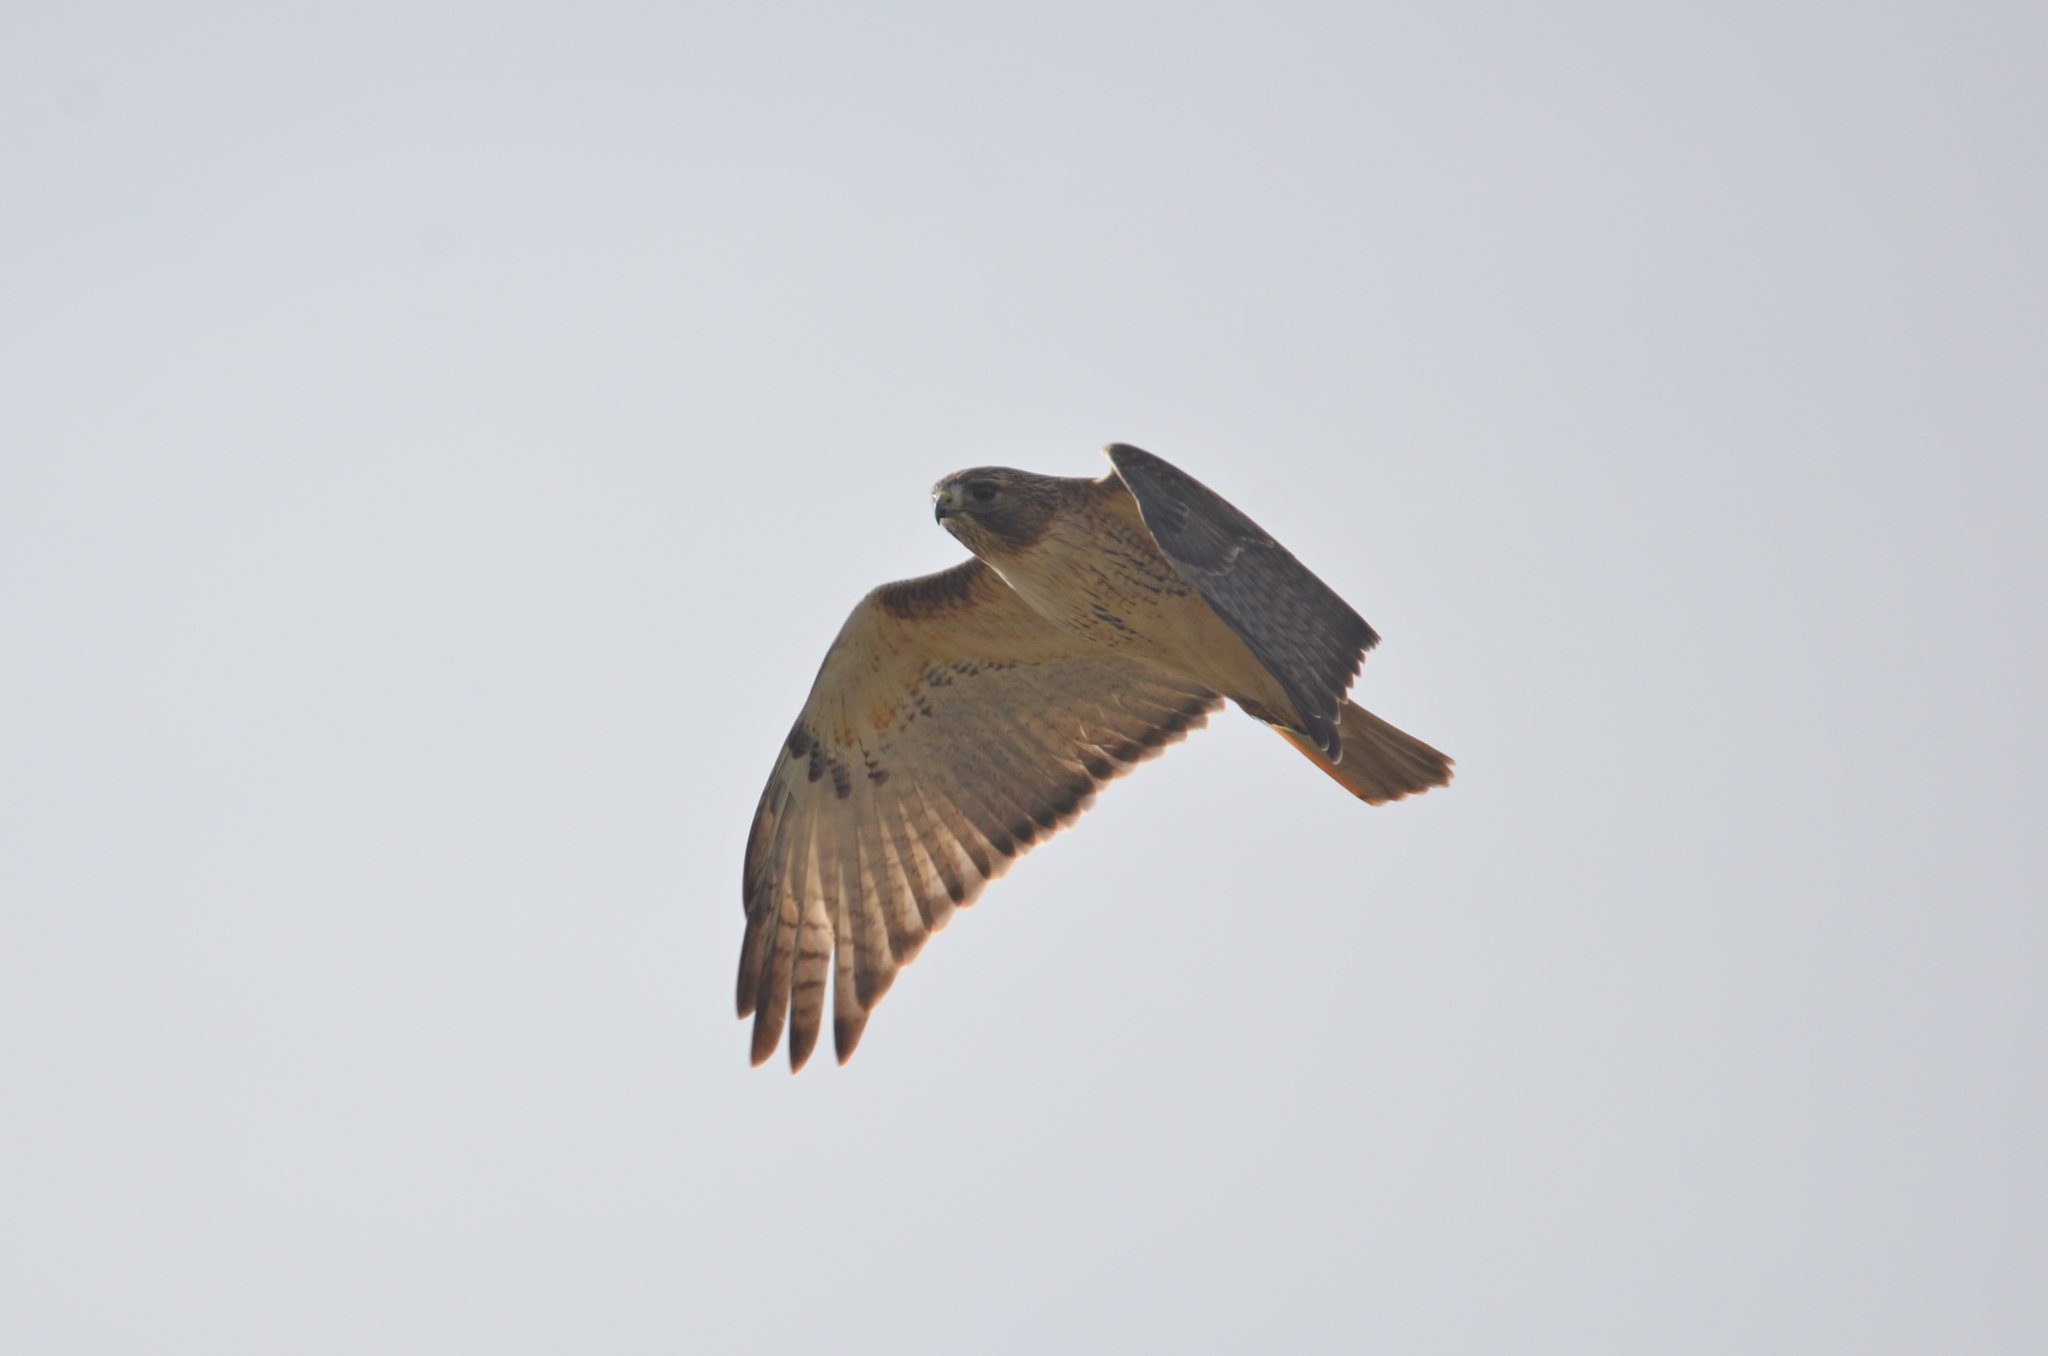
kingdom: Animalia
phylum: Chordata
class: Aves
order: Accipitriformes
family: Accipitridae
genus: Buteo
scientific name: Buteo jamaicensis
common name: Red-tailed hawk
